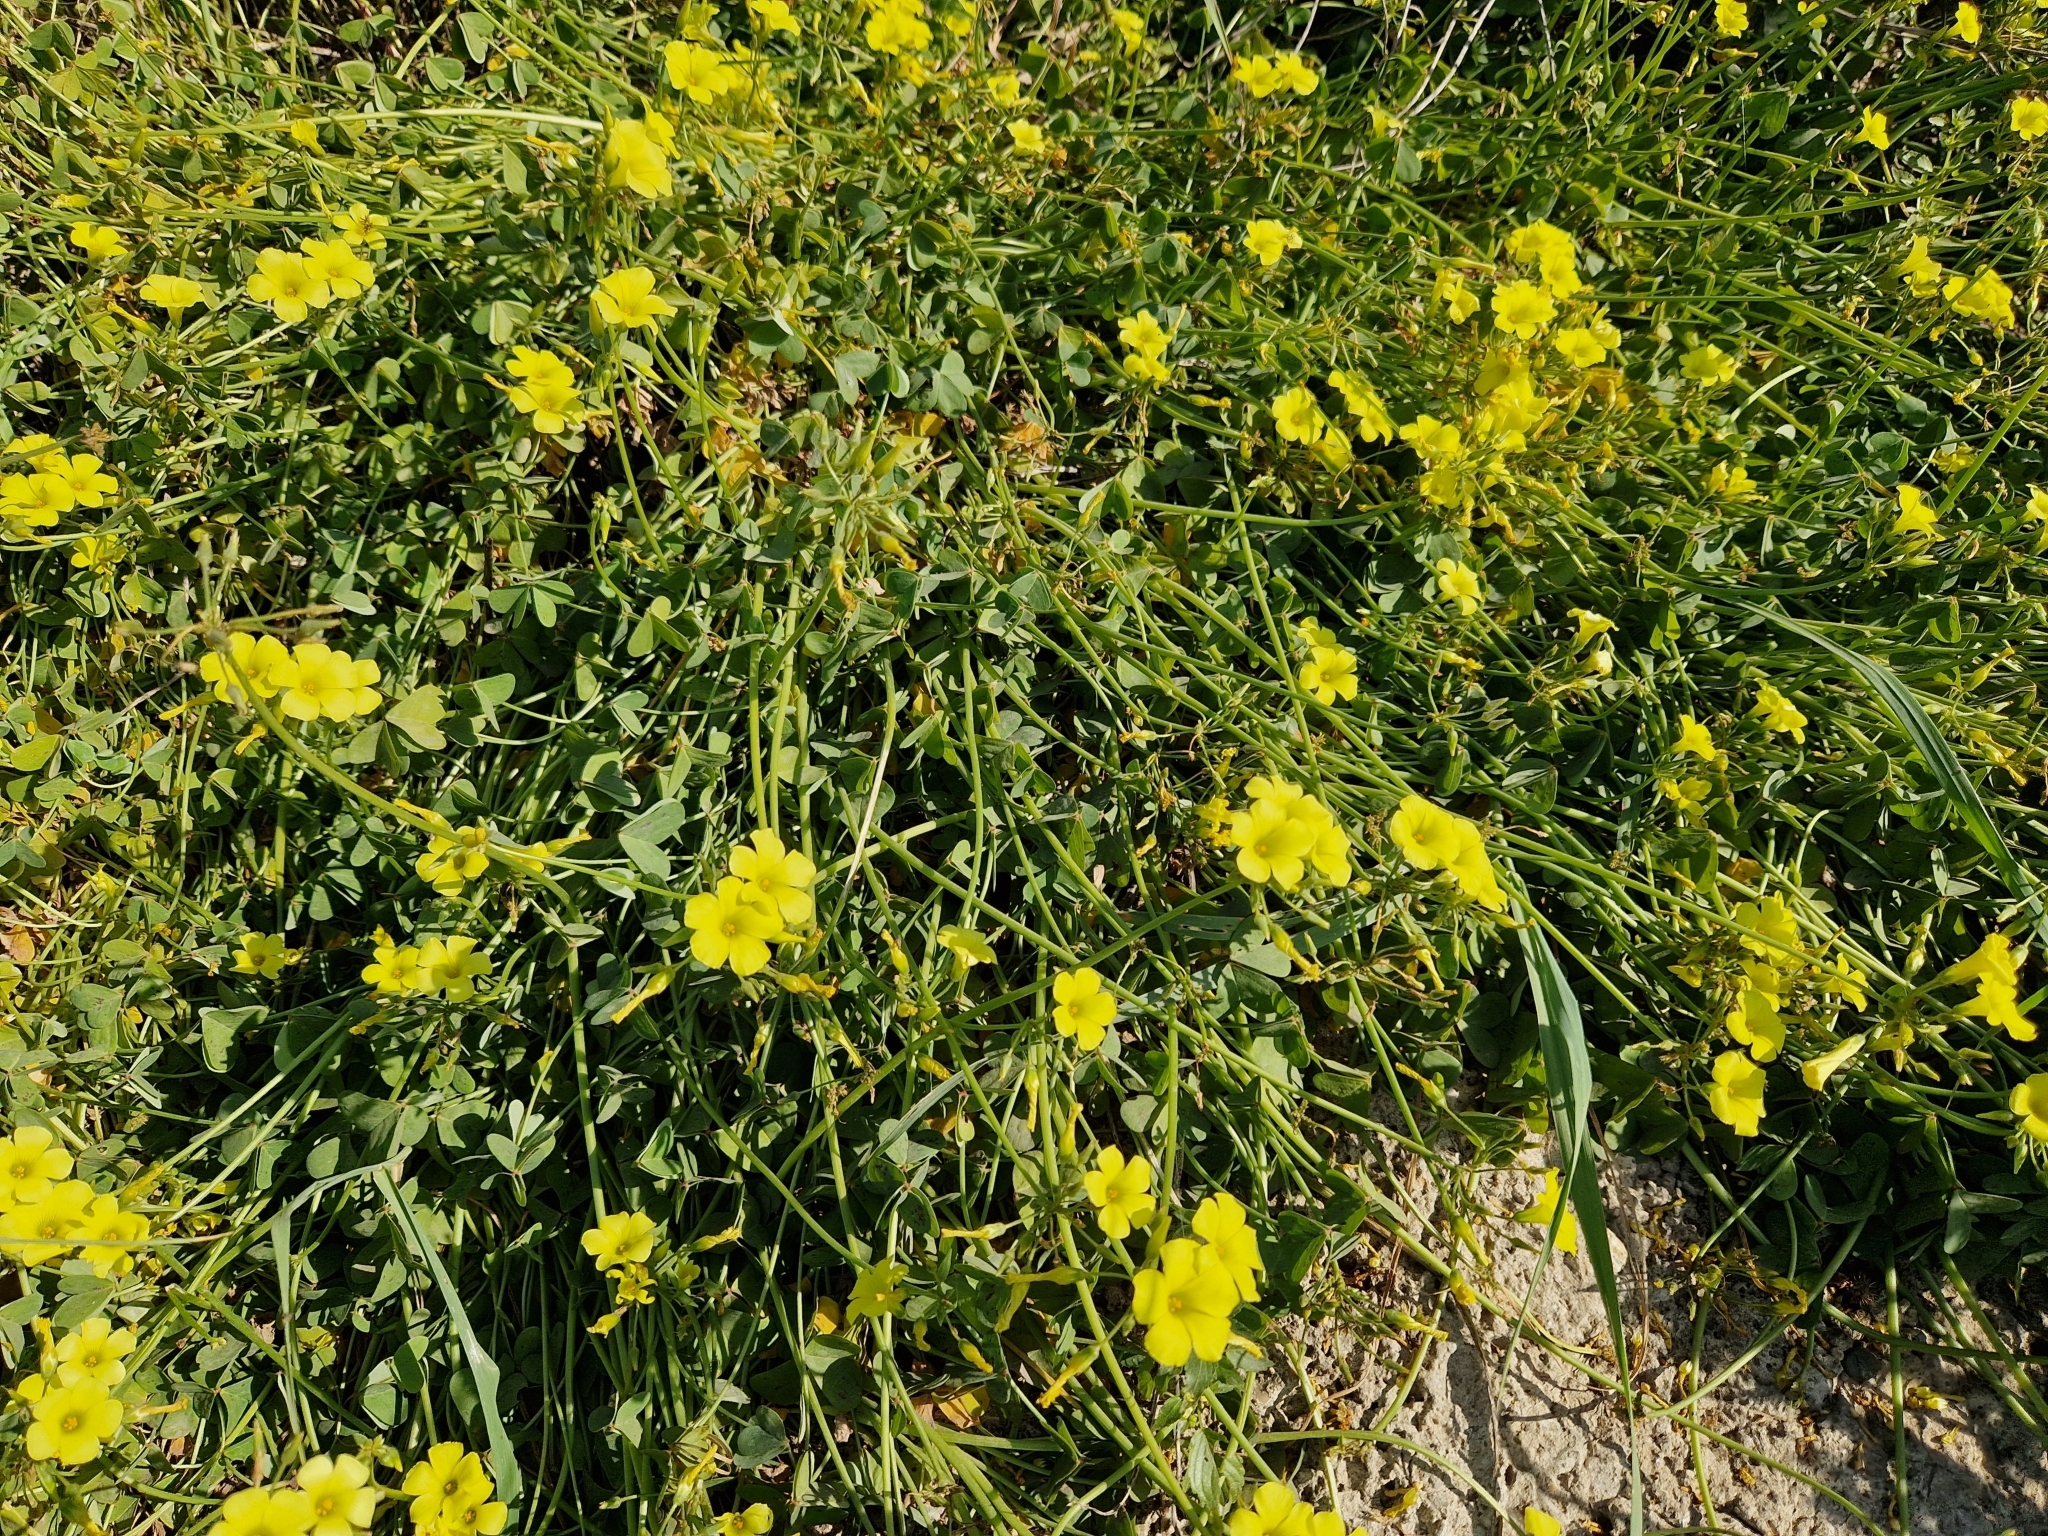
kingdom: Plantae
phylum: Tracheophyta
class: Magnoliopsida
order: Oxalidales
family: Oxalidaceae
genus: Oxalis
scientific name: Oxalis pes-caprae
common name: Bermuda-buttercup
